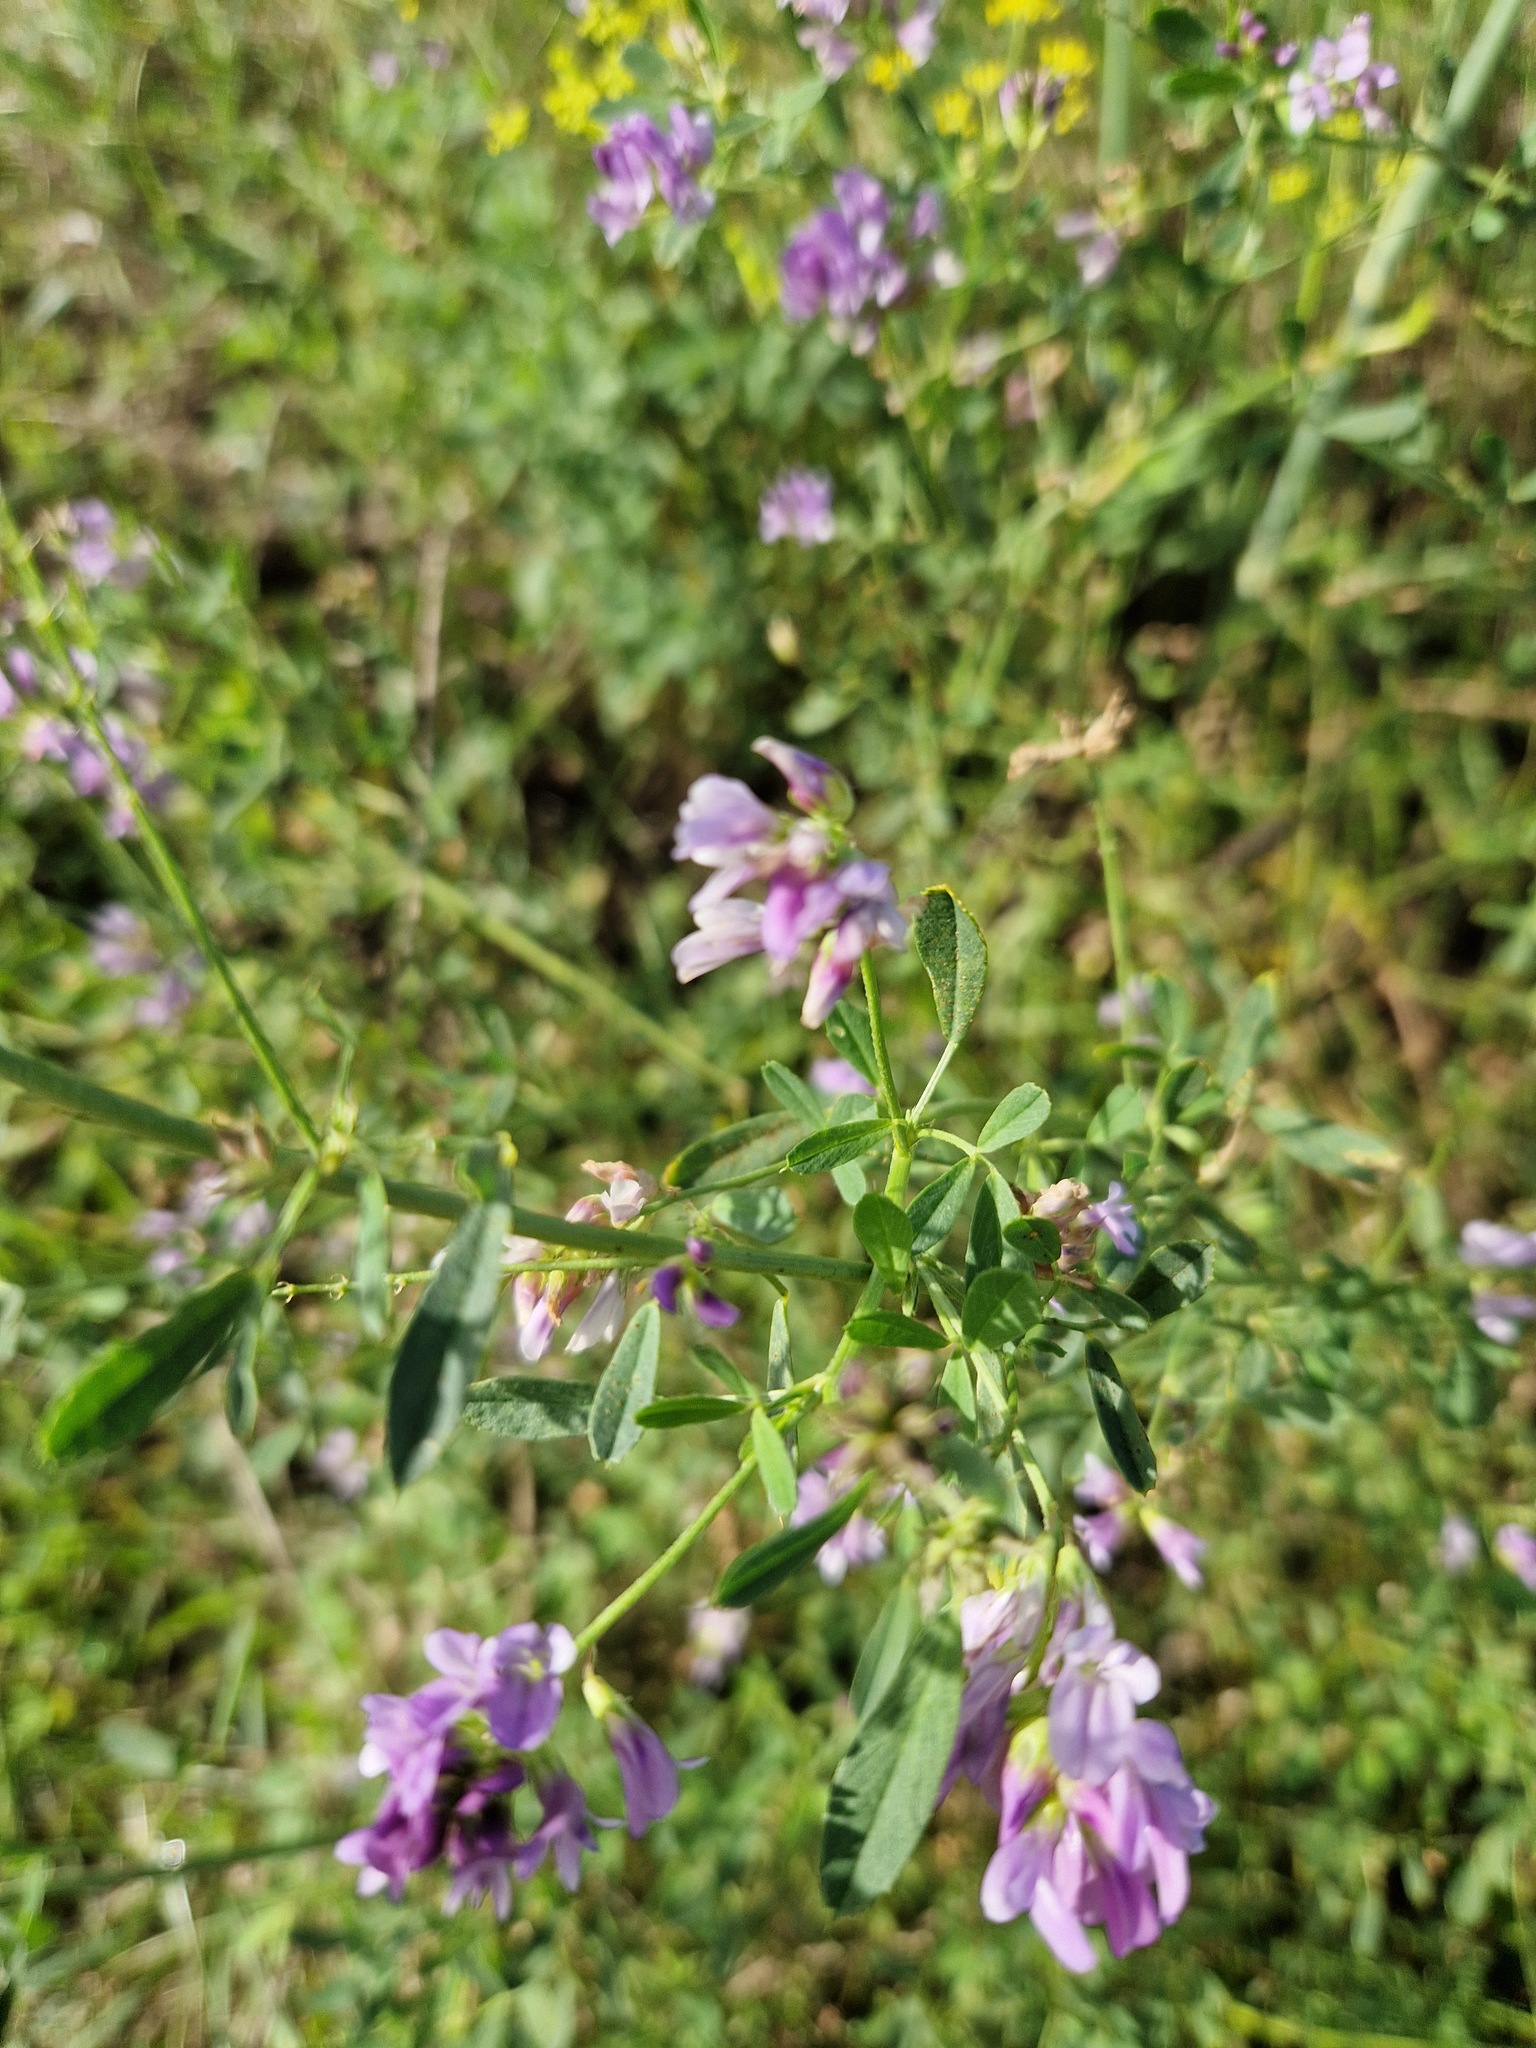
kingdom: Plantae
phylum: Tracheophyta
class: Magnoliopsida
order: Fabales
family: Fabaceae
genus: Medicago
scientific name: Medicago sativa
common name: Alfalfa
